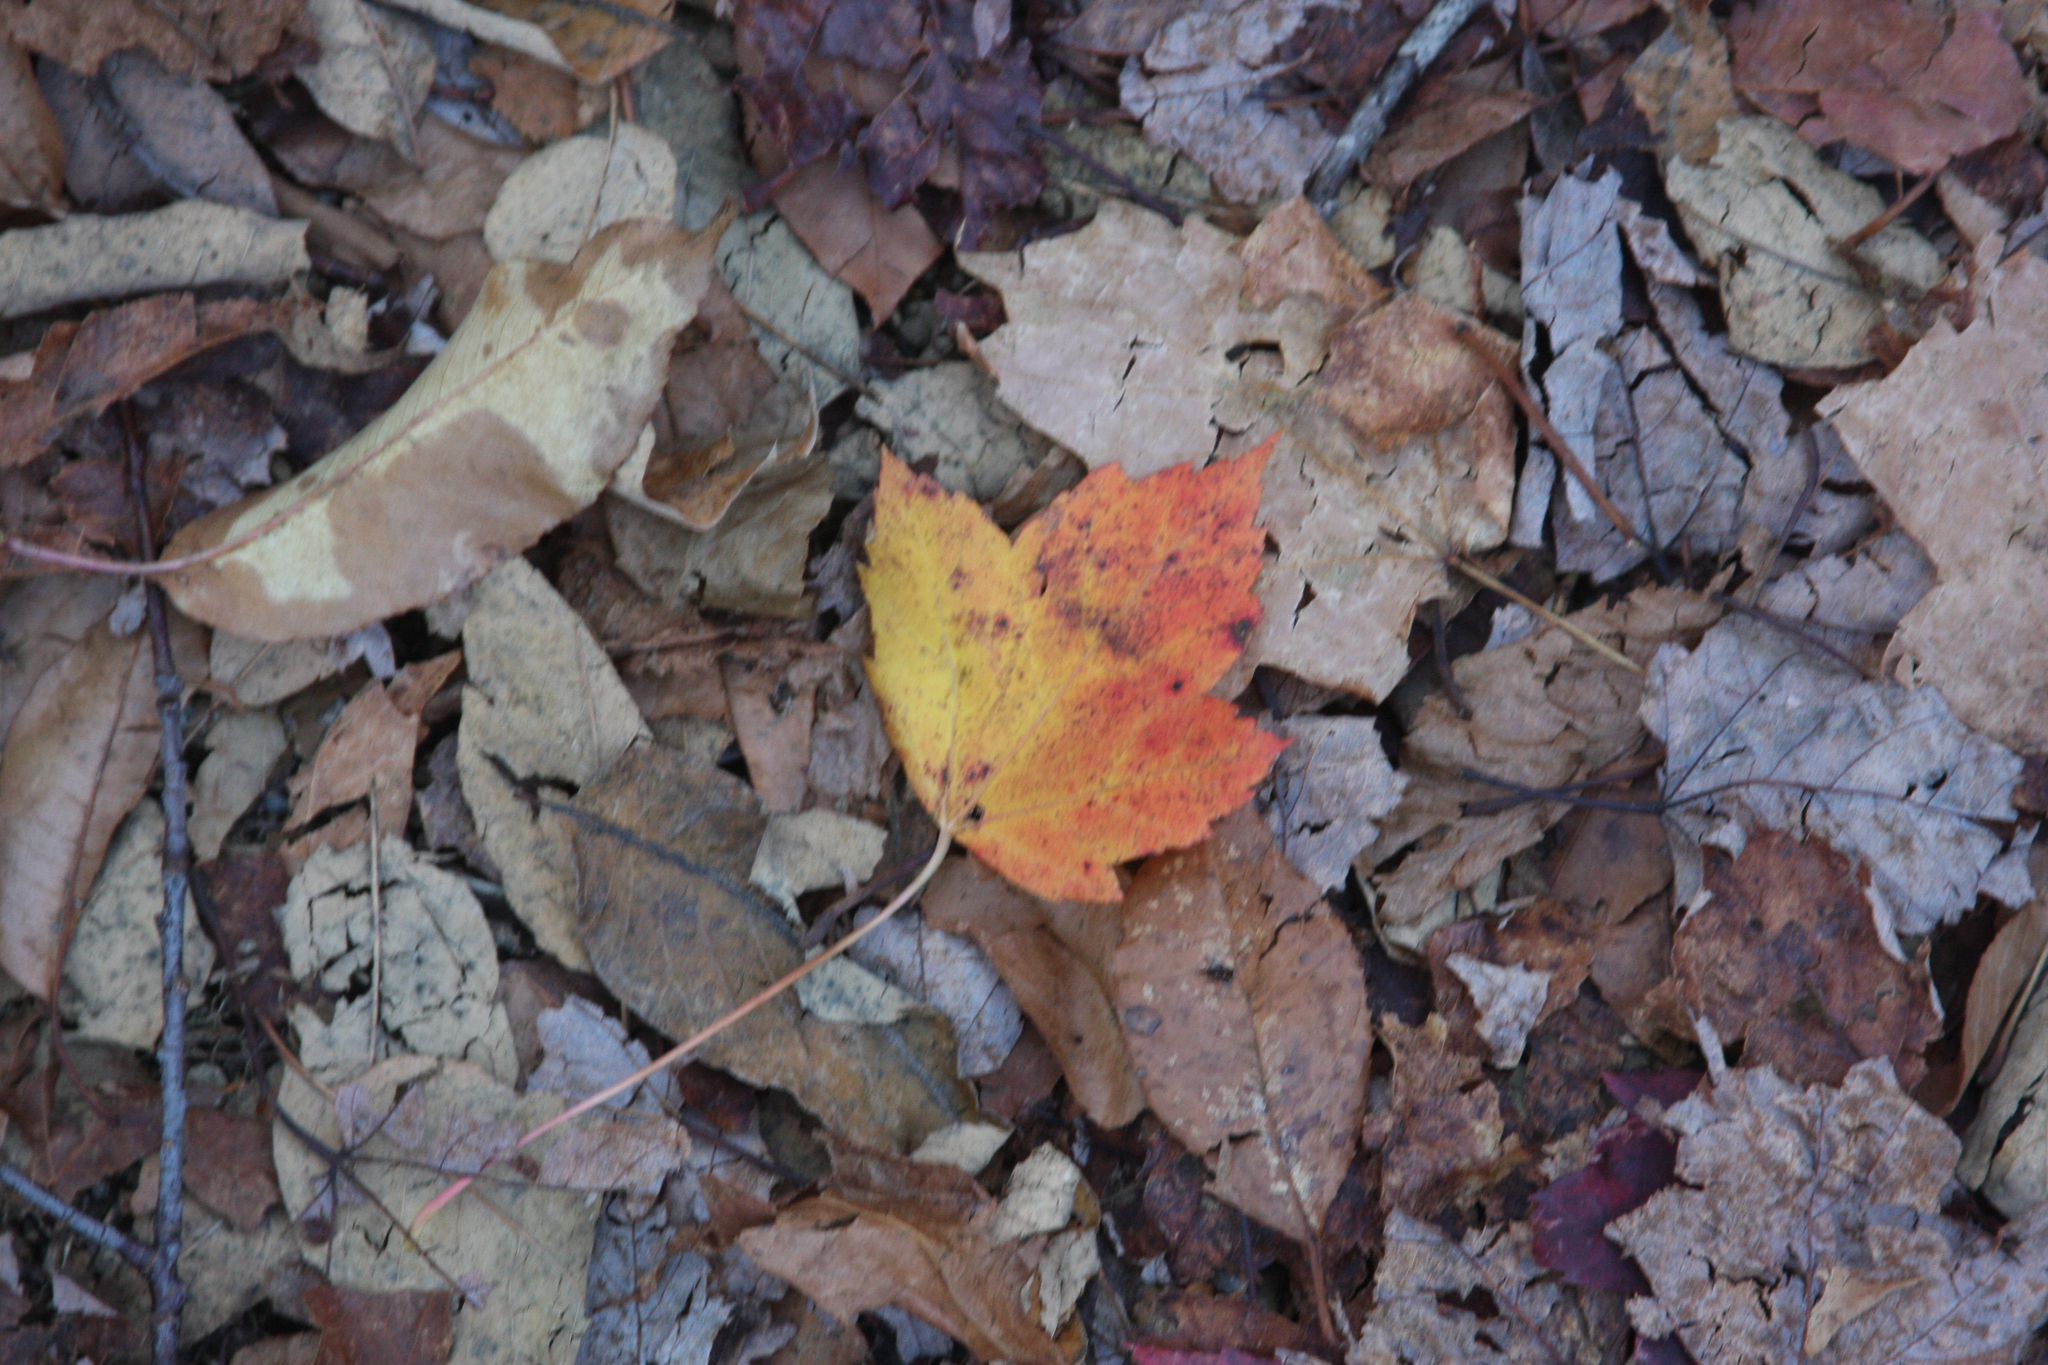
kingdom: Plantae
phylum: Tracheophyta
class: Magnoliopsida
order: Sapindales
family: Sapindaceae
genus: Acer
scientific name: Acer rubrum
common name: Red maple
